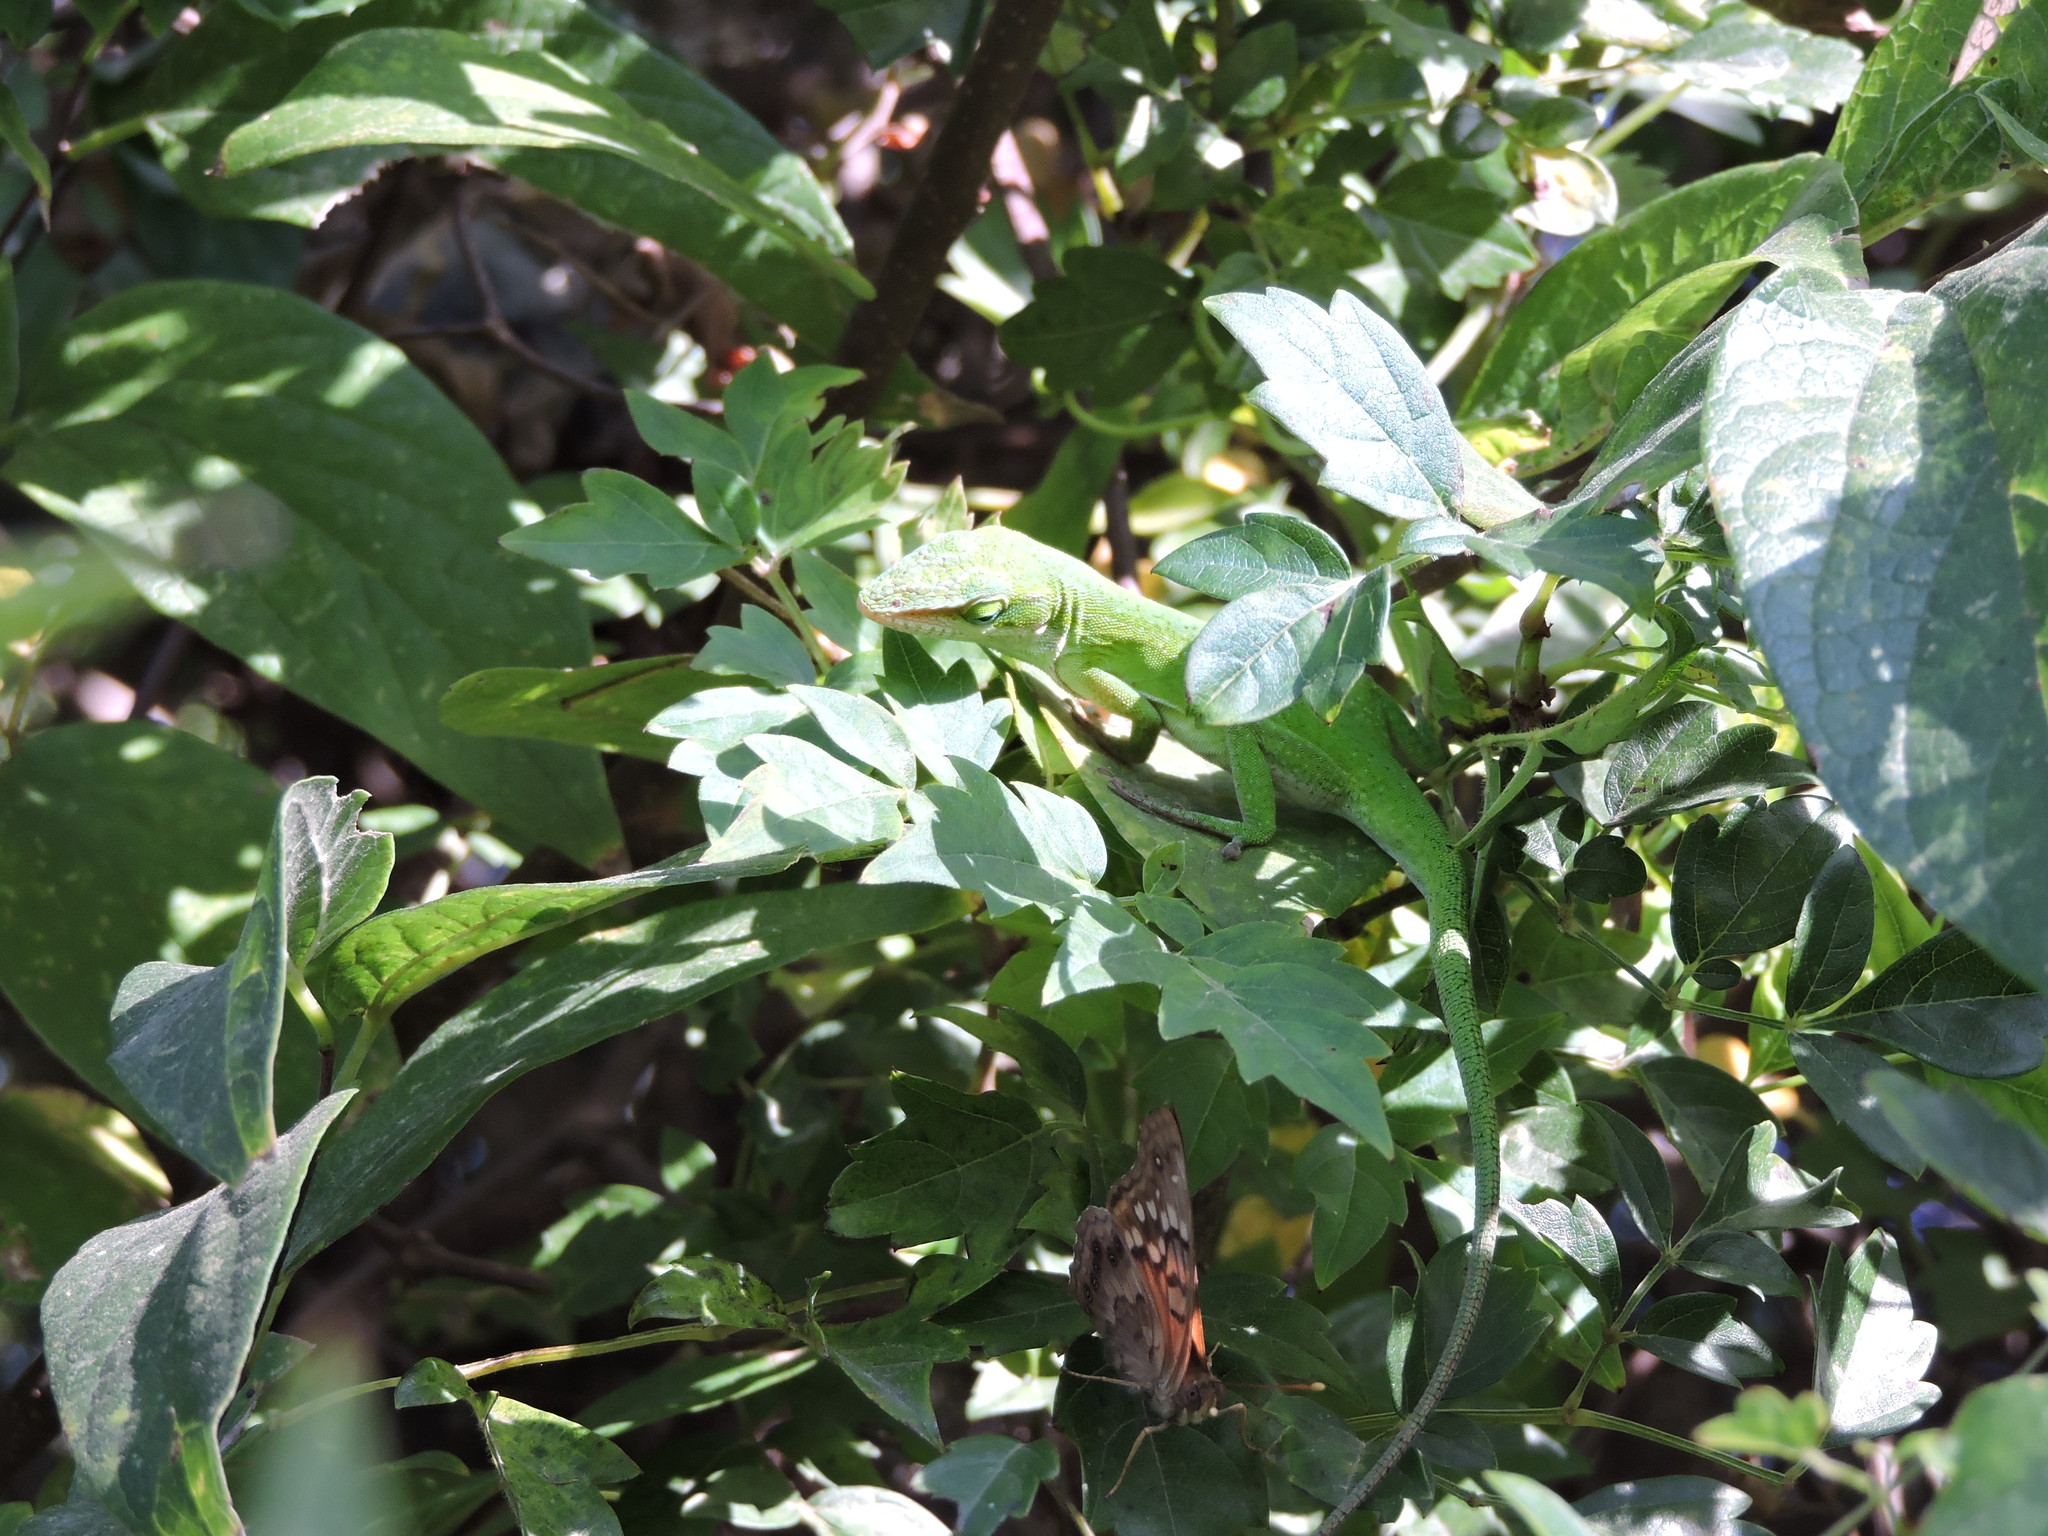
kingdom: Animalia
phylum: Chordata
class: Squamata
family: Dactyloidae
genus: Anolis
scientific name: Anolis carolinensis
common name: Green anole
